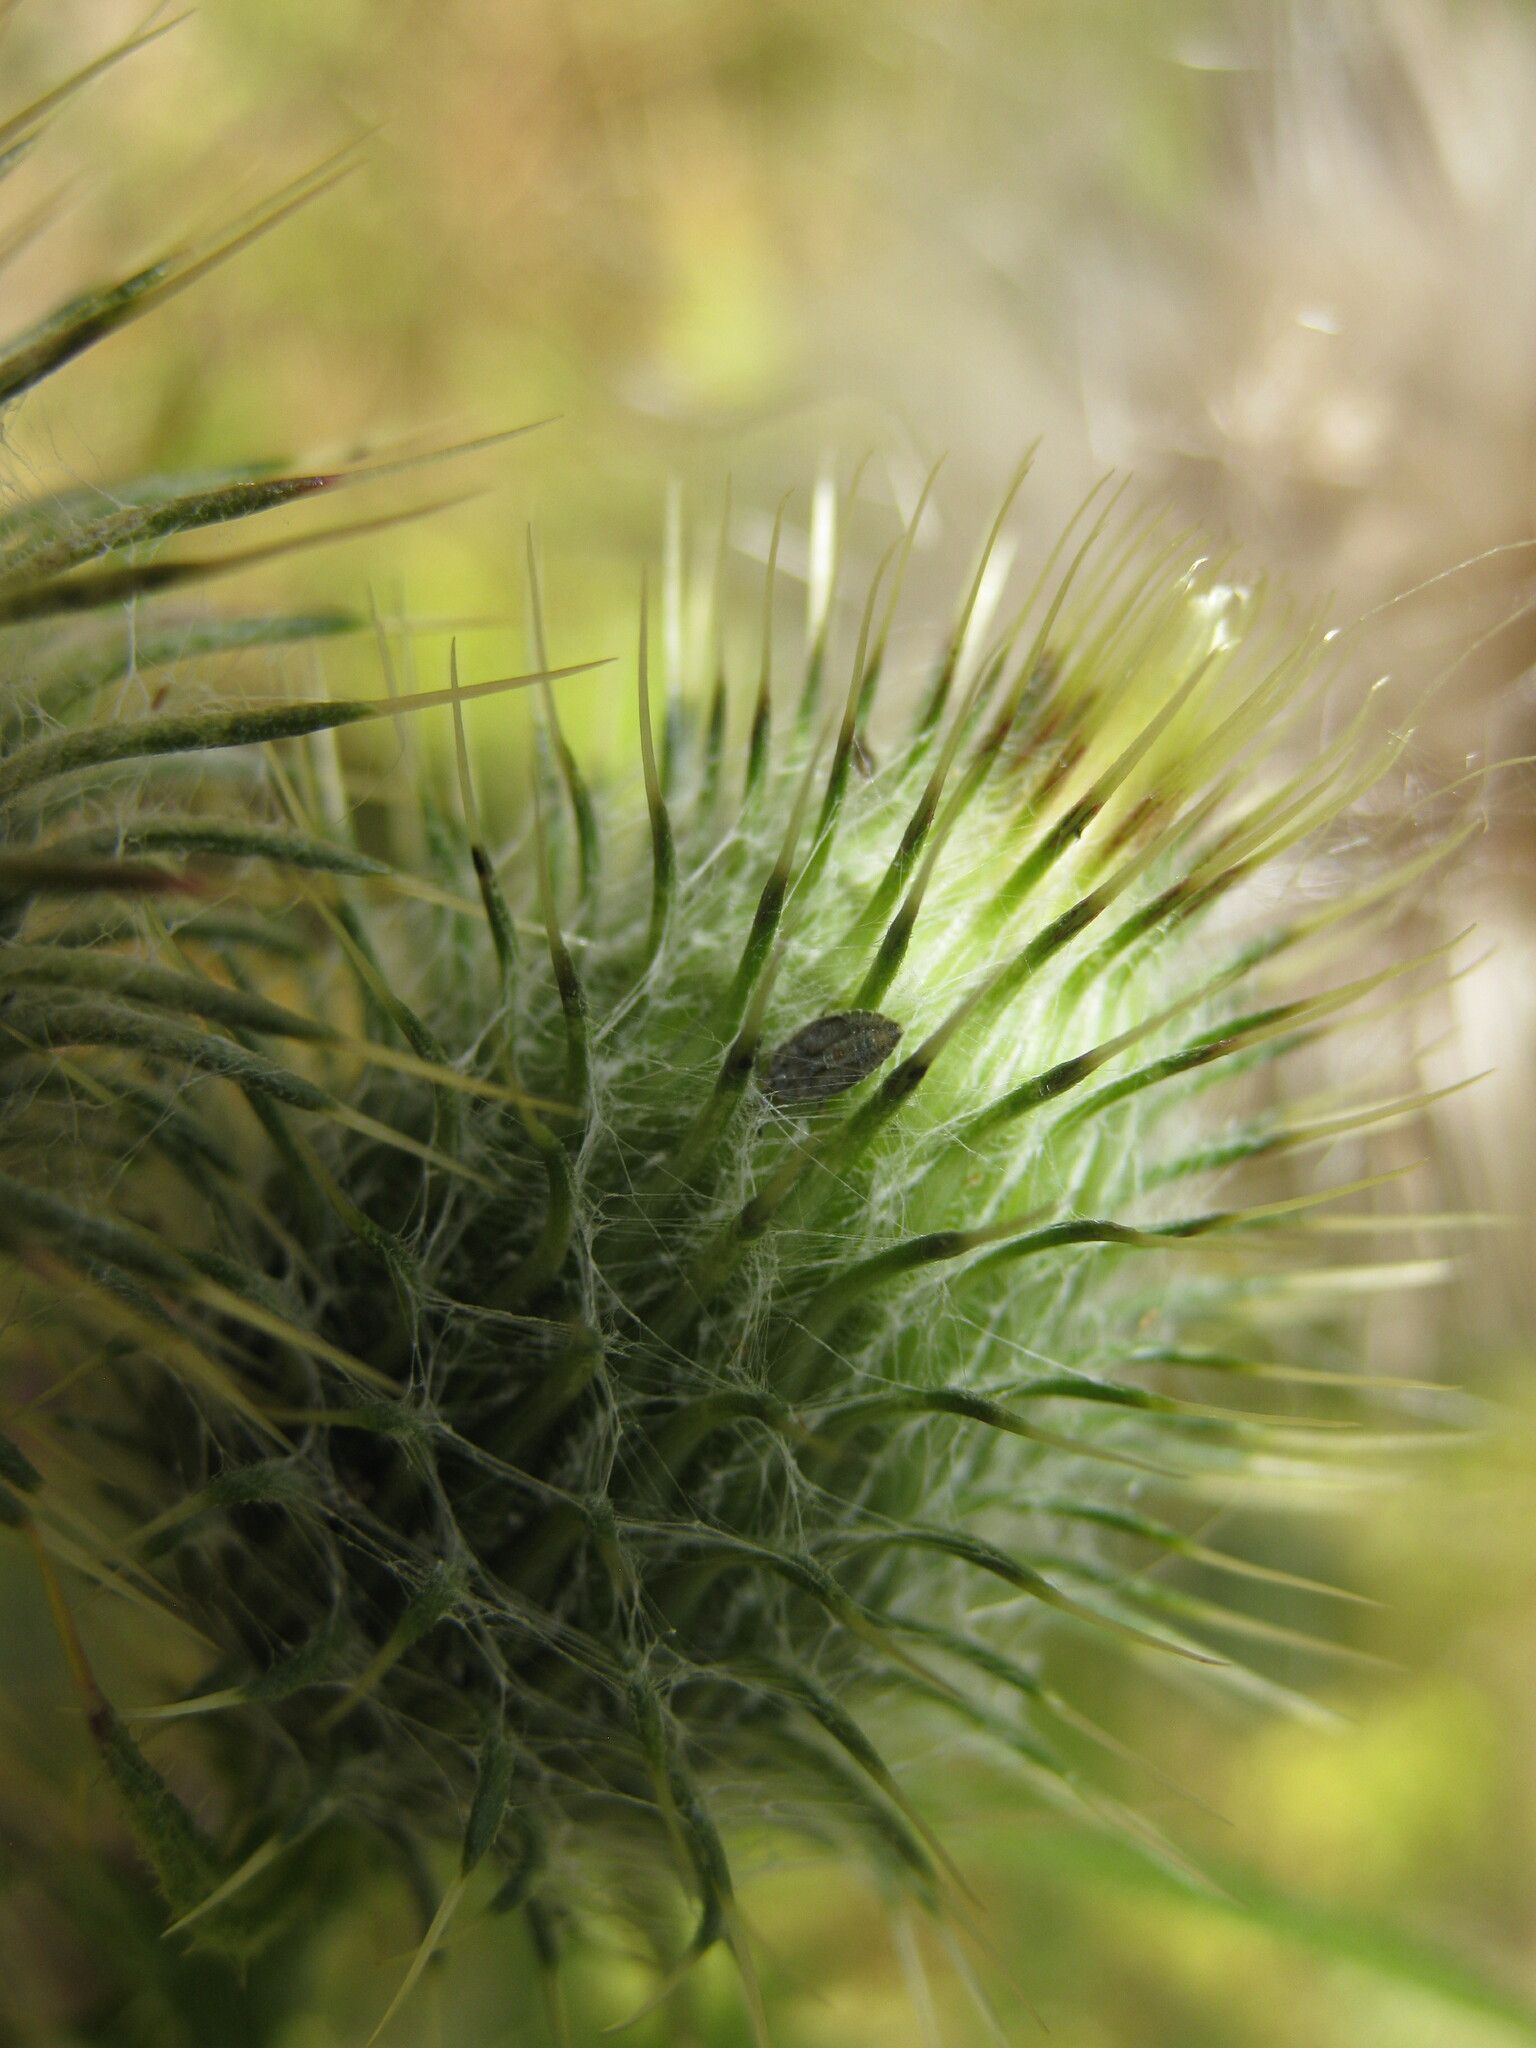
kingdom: Animalia
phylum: Arthropoda
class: Insecta
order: Hemiptera
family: Tingidae
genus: Tingis
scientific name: Tingis cardui
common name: Spear thistle lacebug
